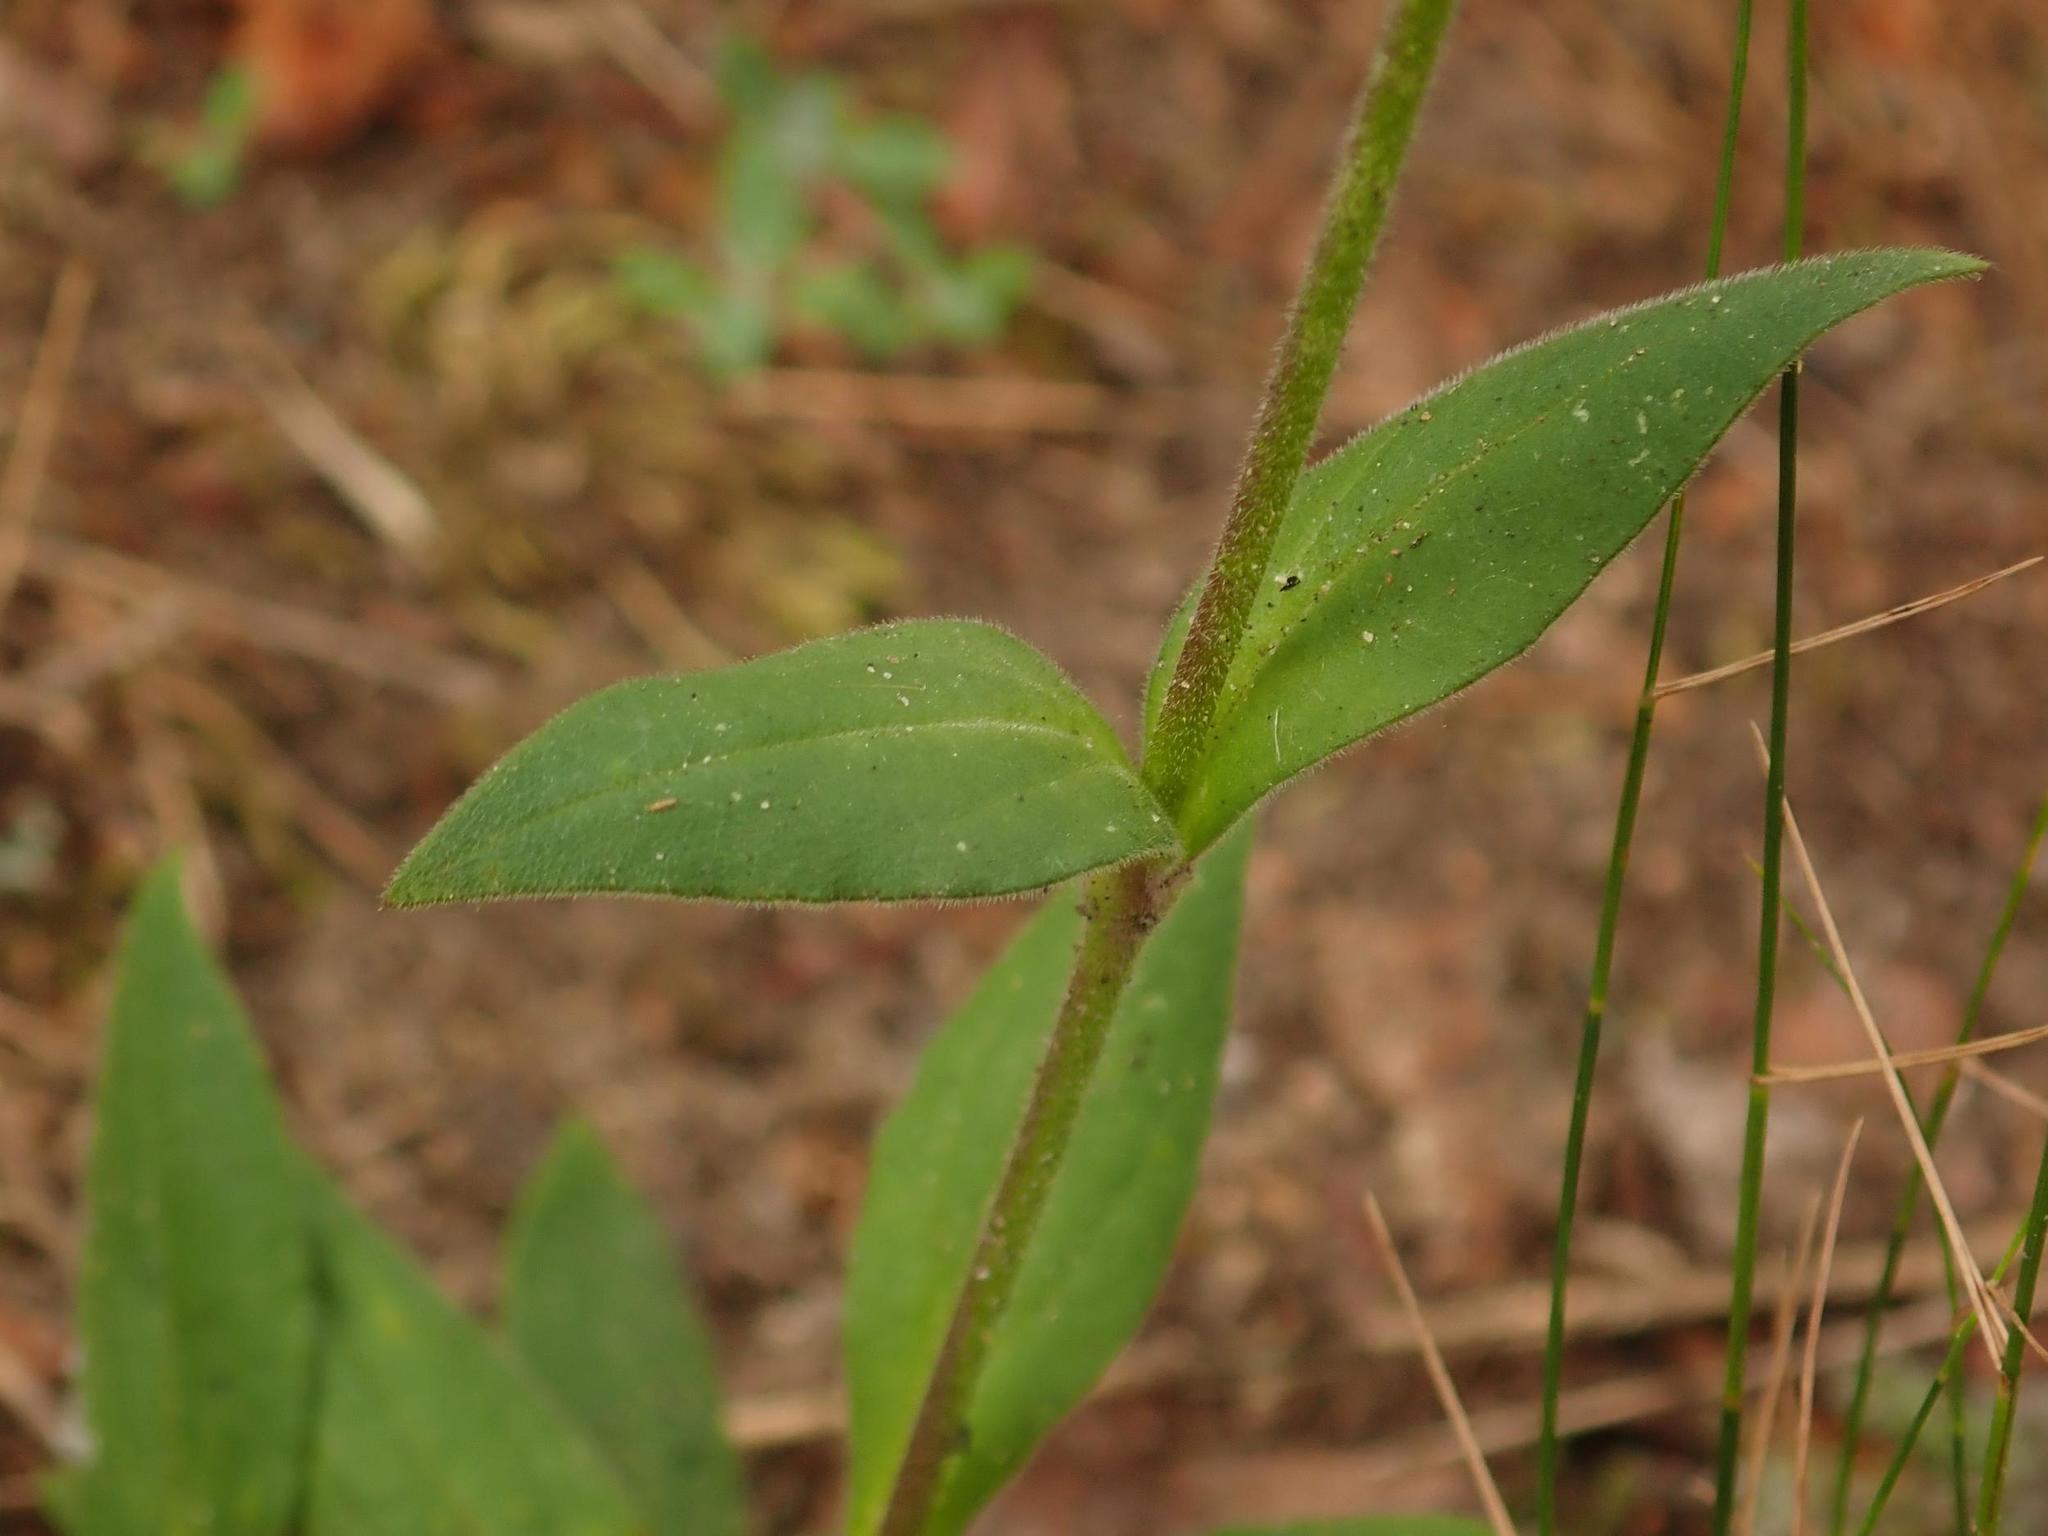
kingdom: Plantae
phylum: Tracheophyta
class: Magnoliopsida
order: Caryophyllales
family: Caryophyllaceae
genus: Silene
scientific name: Silene dioica
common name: Red campion
